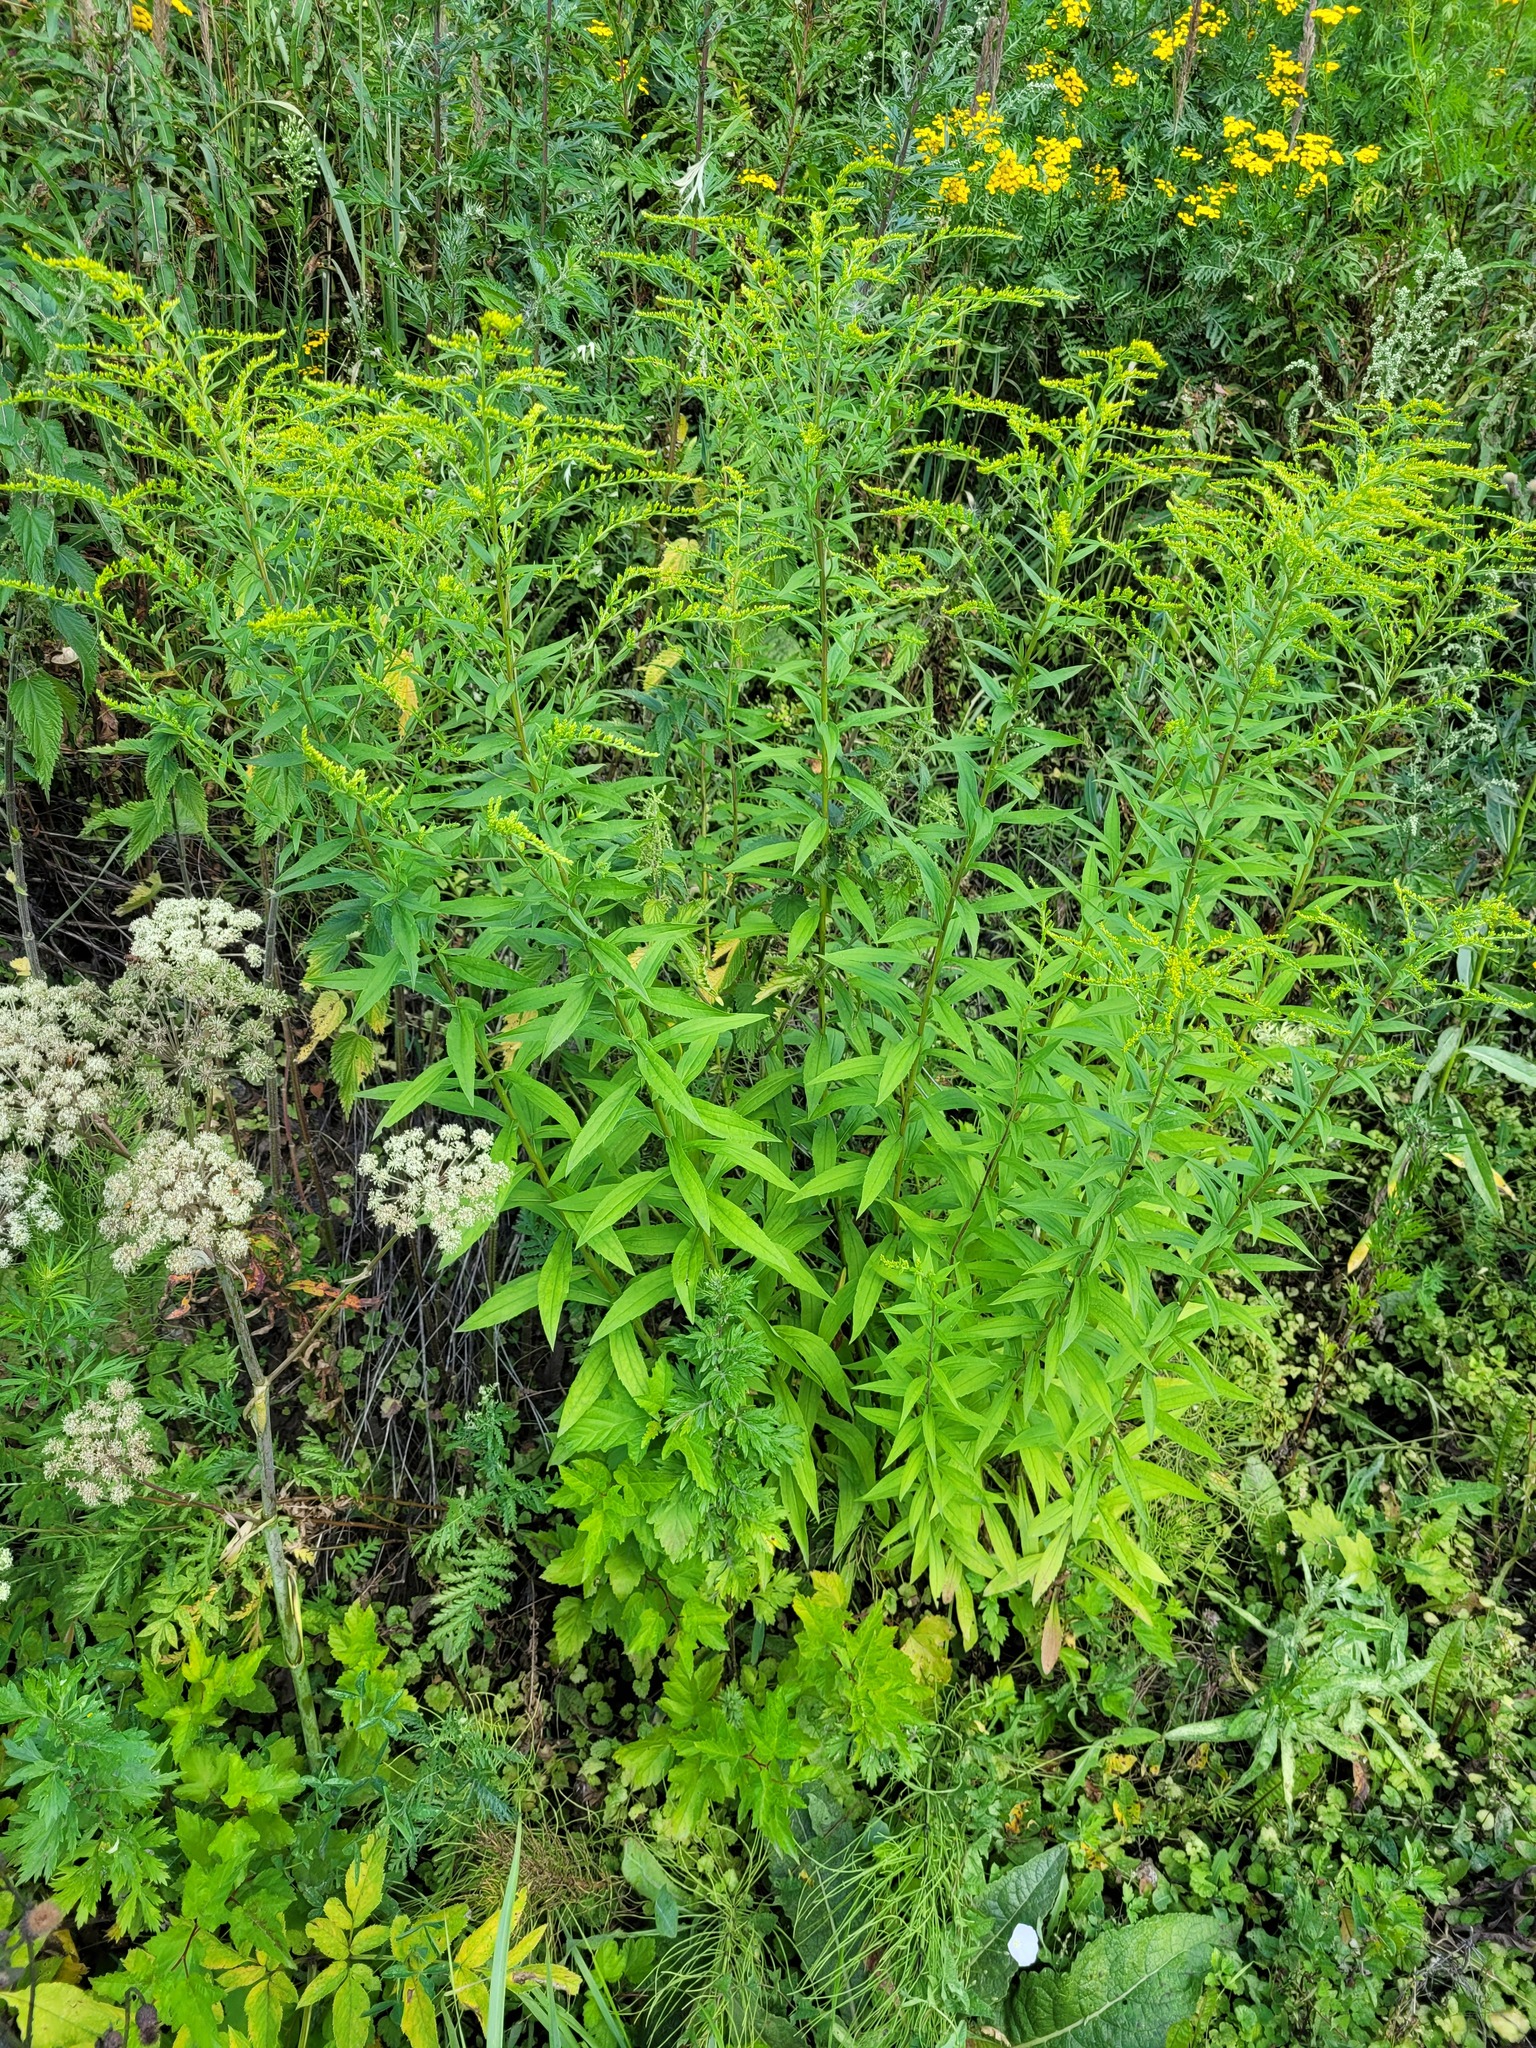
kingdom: Plantae
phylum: Tracheophyta
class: Magnoliopsida
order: Asterales
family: Asteraceae
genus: Solidago
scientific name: Solidago canadensis
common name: Canada goldenrod
